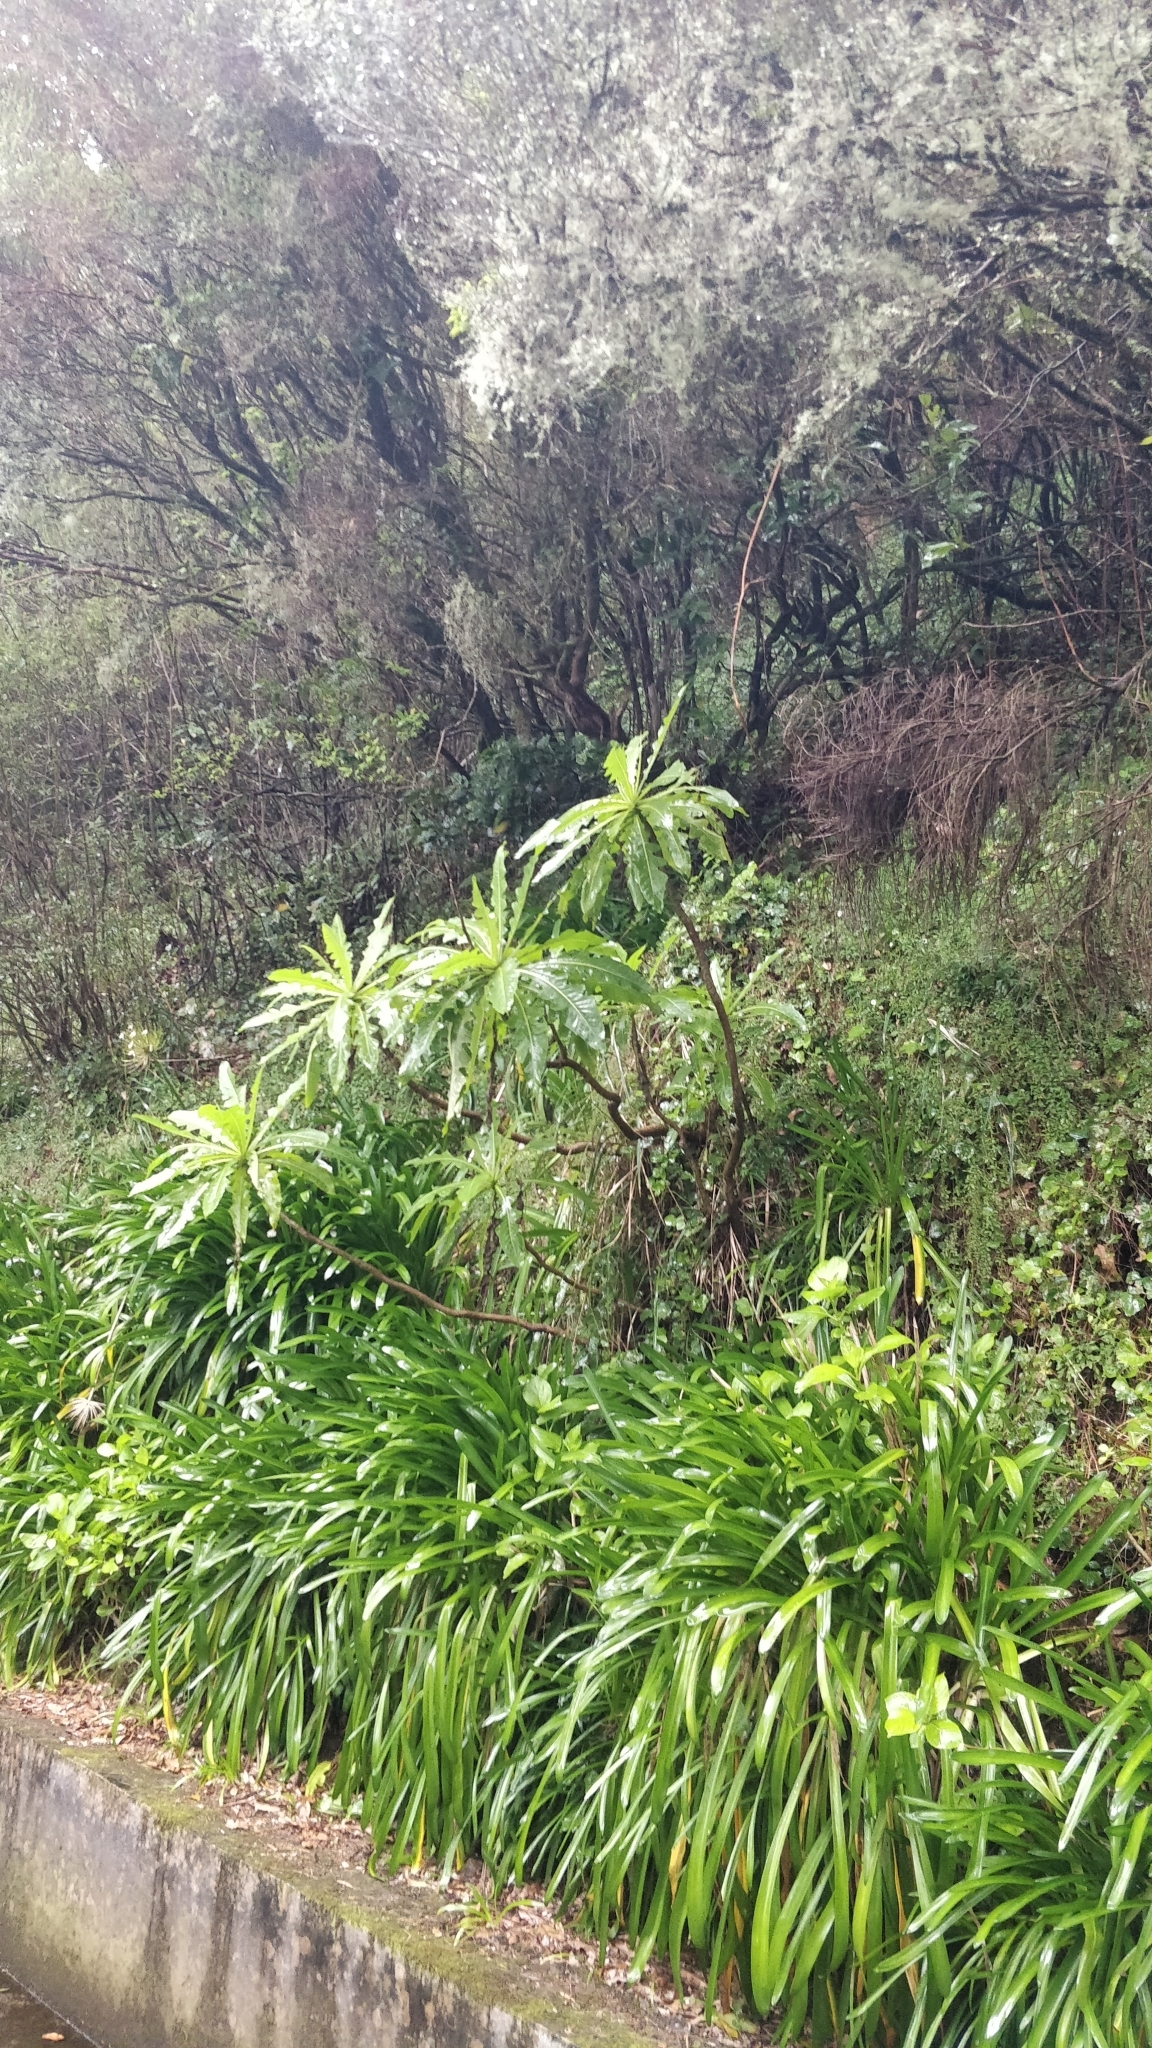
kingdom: Plantae
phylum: Tracheophyta
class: Magnoliopsida
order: Asterales
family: Asteraceae
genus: Sonchus
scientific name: Sonchus fruticosus
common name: Shrubby sow-thistle
